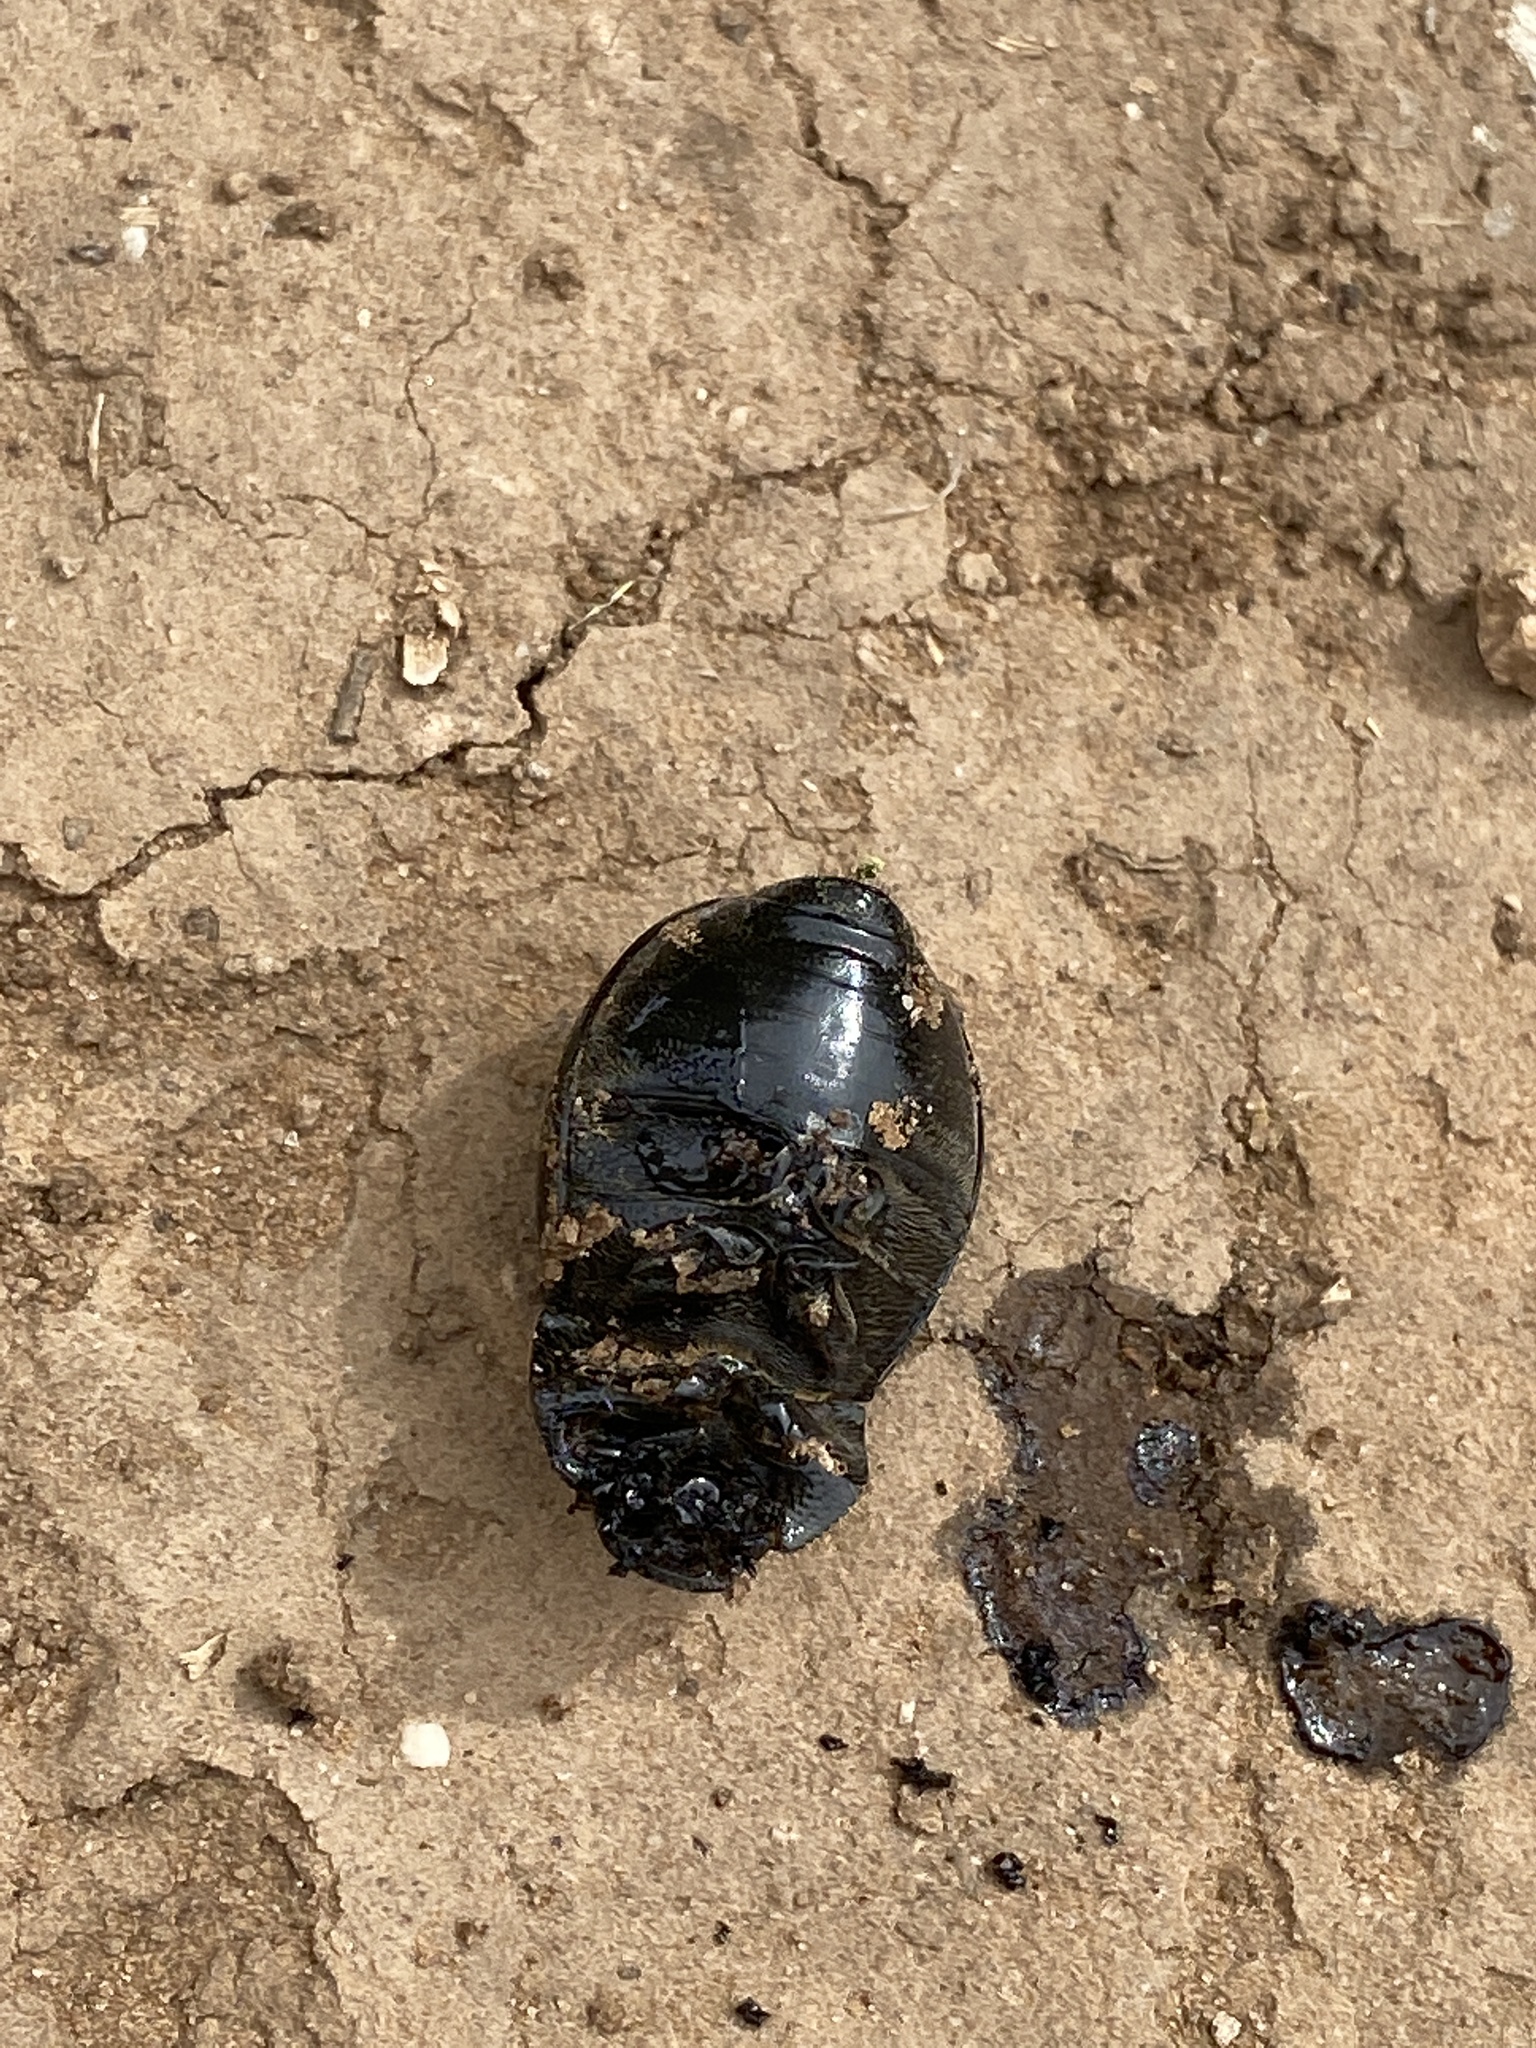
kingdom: Animalia
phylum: Arthropoda
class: Insecta
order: Coleoptera
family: Scarabaeidae
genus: Phyllophaga
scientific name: Phyllophaga cribrosa
